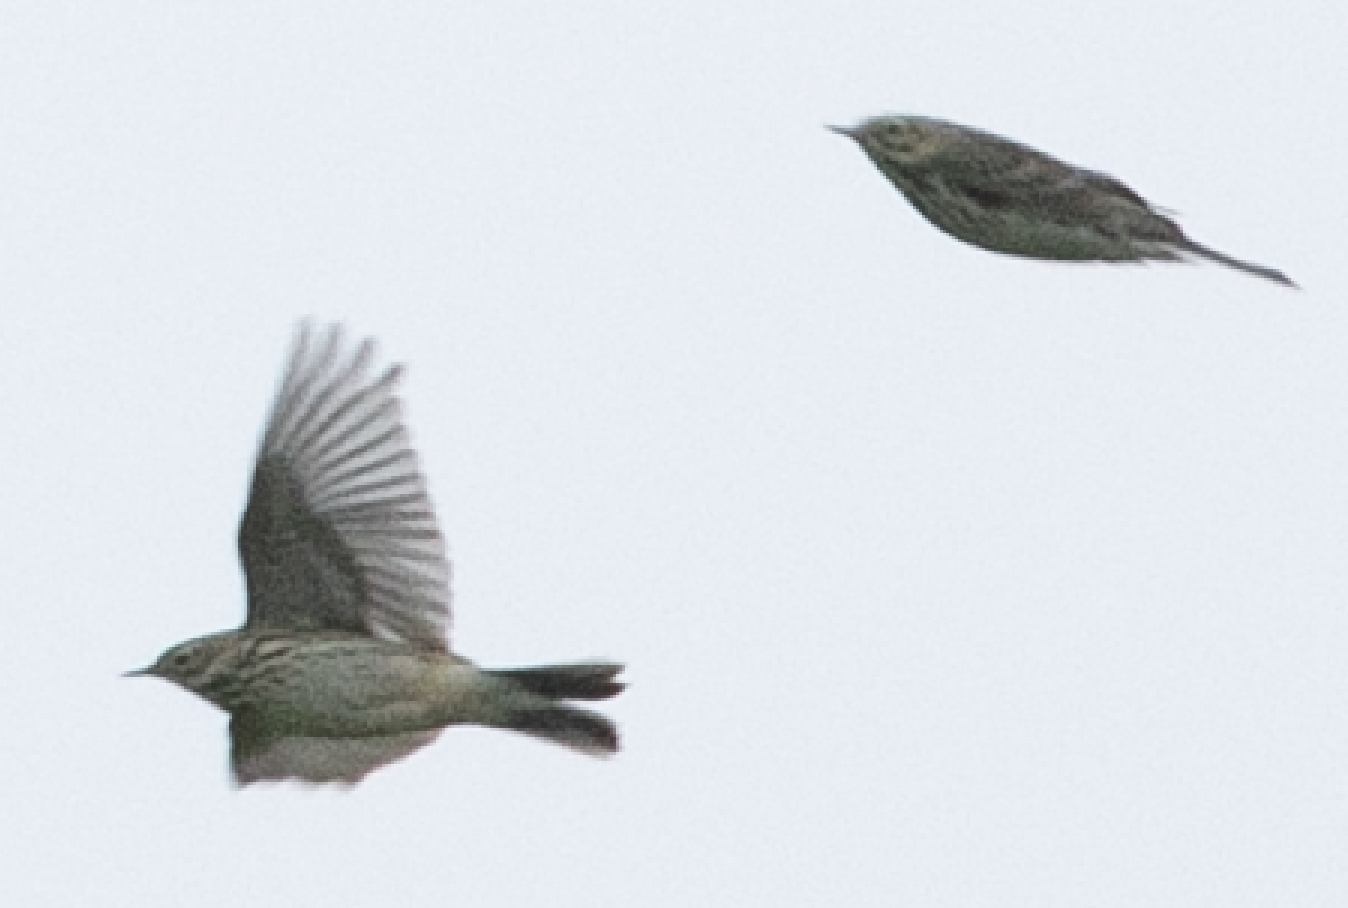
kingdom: Animalia
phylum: Chordata
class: Aves
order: Passeriformes
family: Motacillidae
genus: Anthus
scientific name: Anthus pratensis
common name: Meadow pipit
